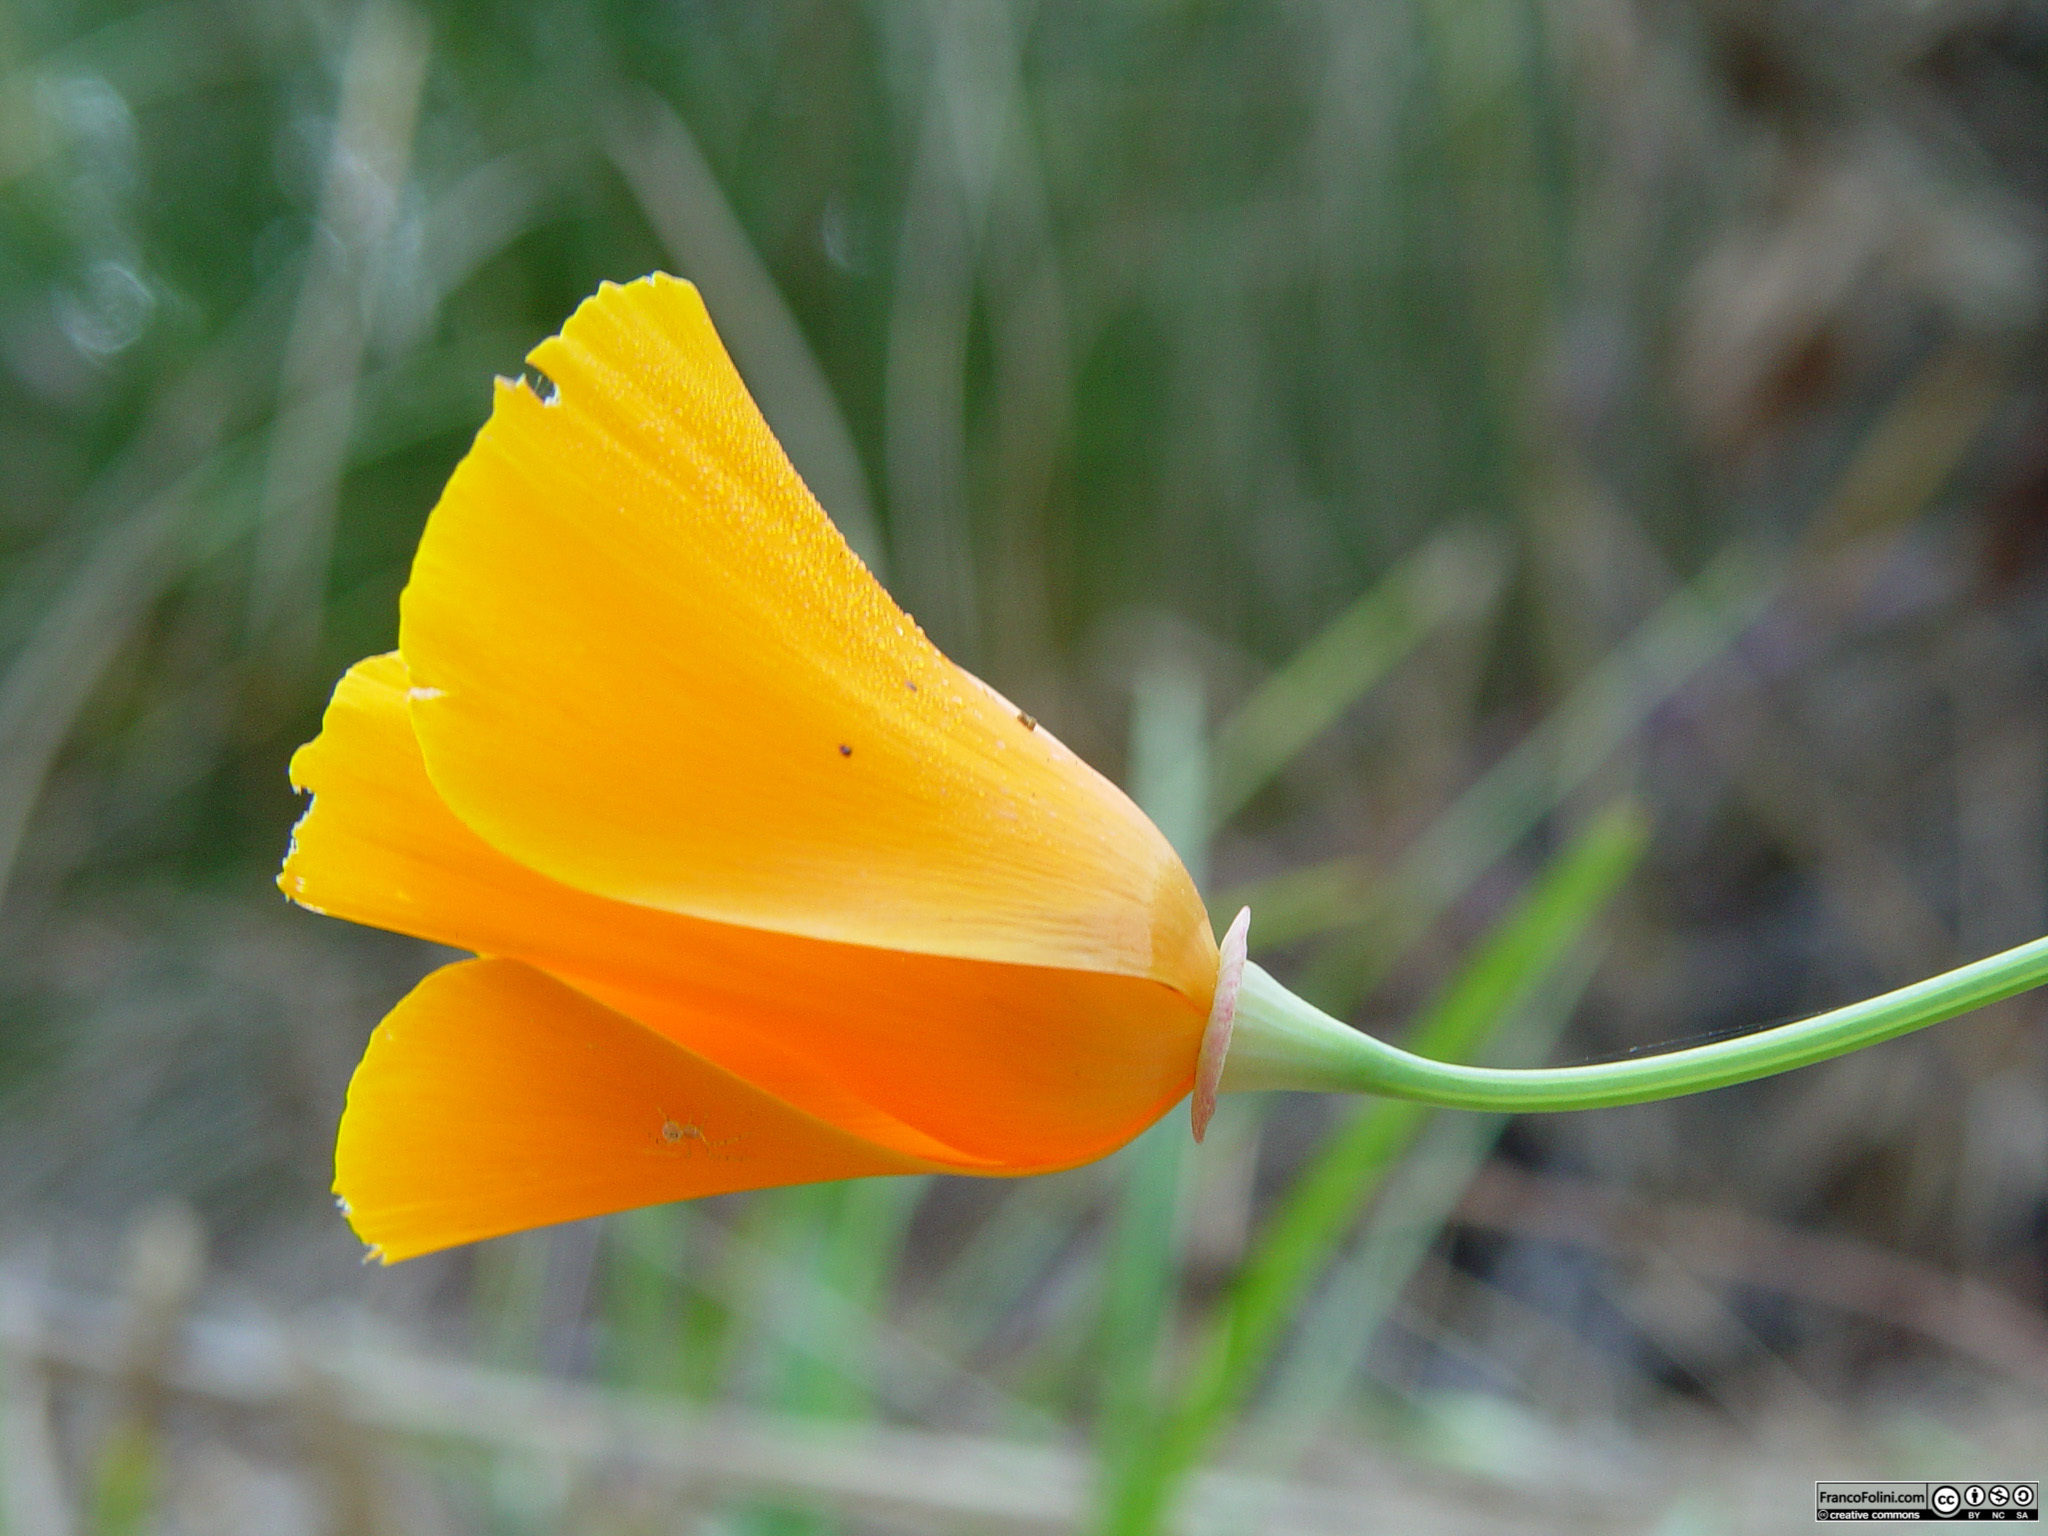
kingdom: Plantae
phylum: Tracheophyta
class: Magnoliopsida
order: Ranunculales
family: Papaveraceae
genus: Eschscholzia
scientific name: Eschscholzia californica
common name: California poppy
